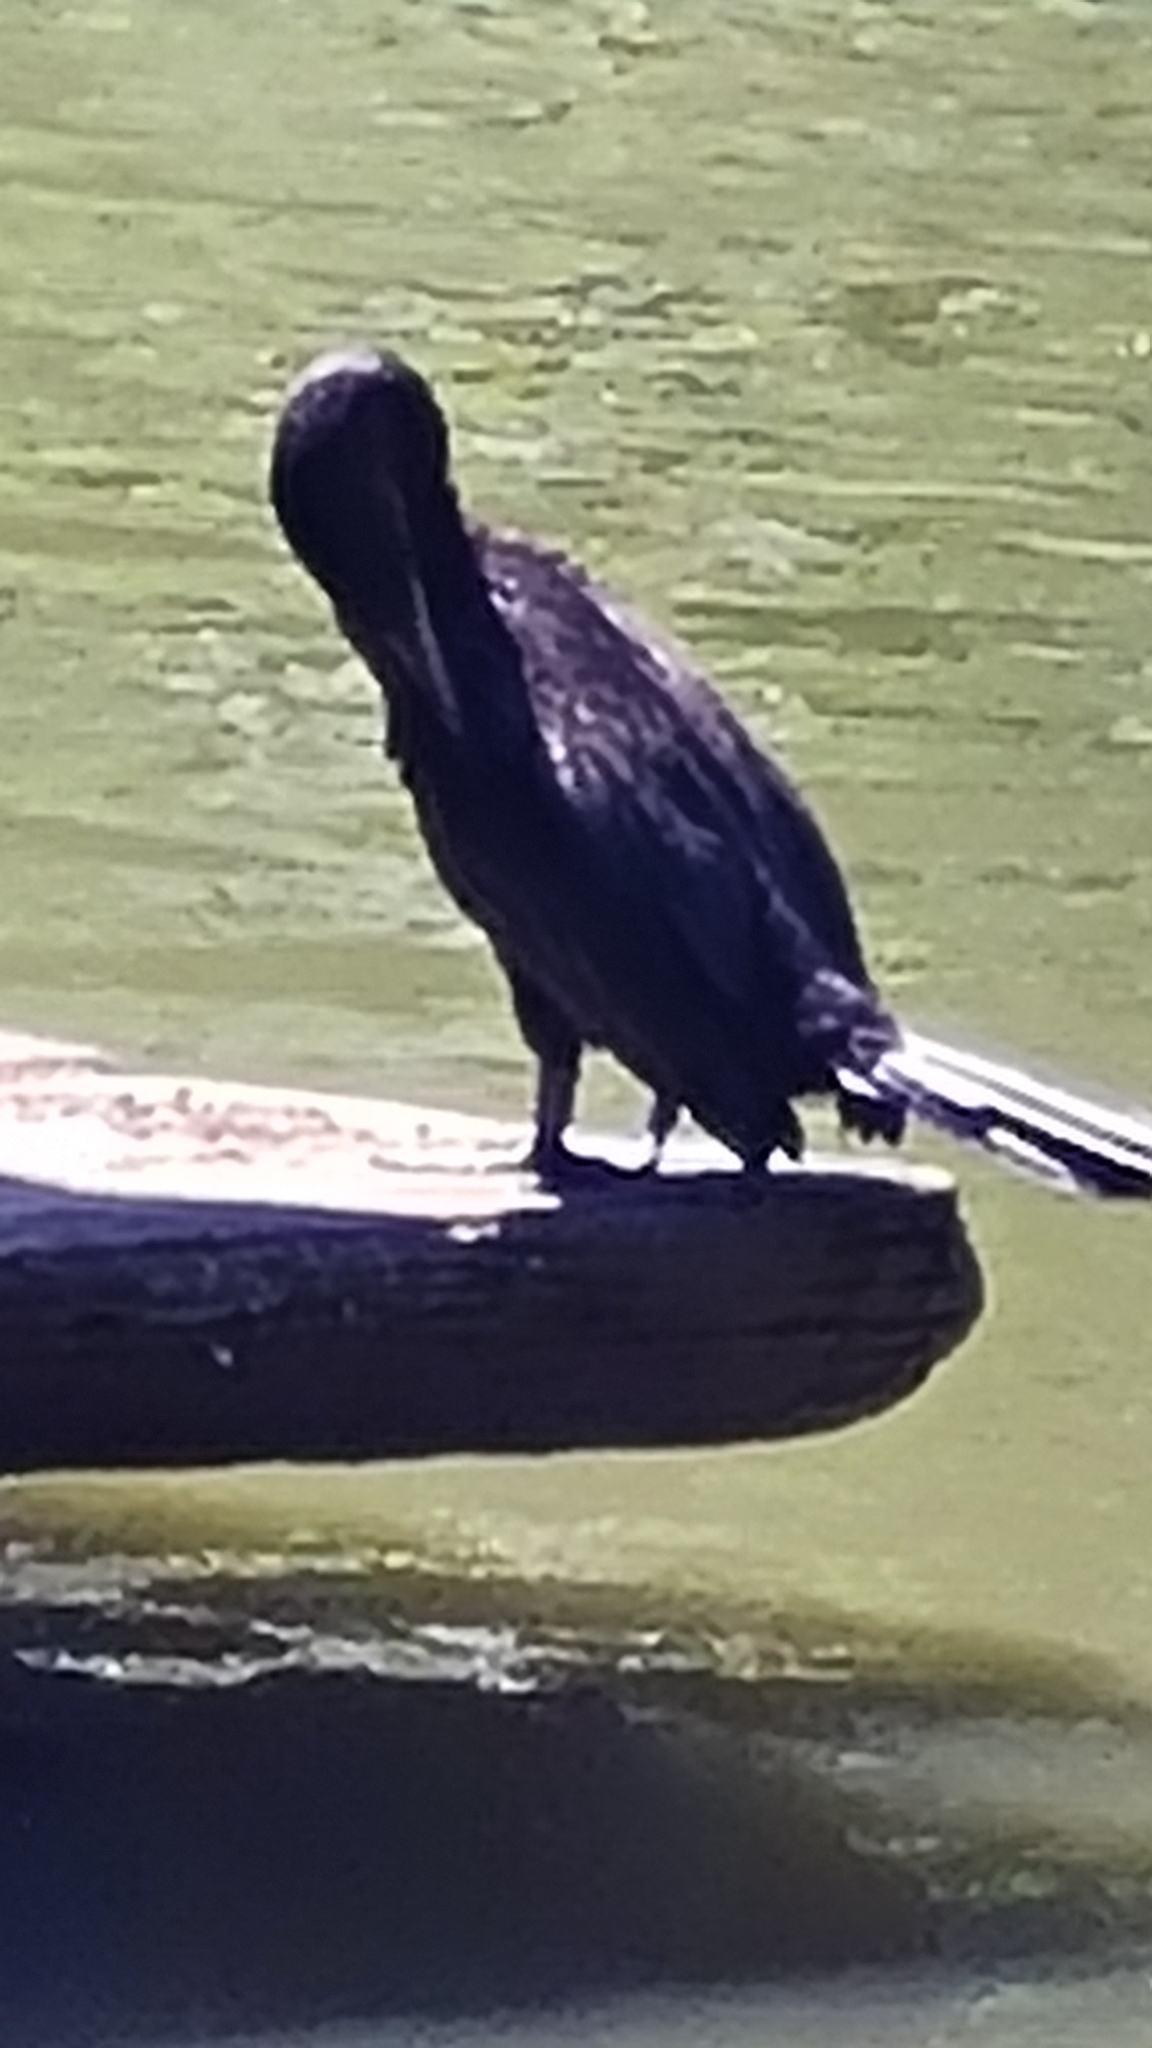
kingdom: Animalia
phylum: Chordata
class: Aves
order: Suliformes
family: Phalacrocoracidae
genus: Phalacrocorax
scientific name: Phalacrocorax brasilianus
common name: Neotropic cormorant
